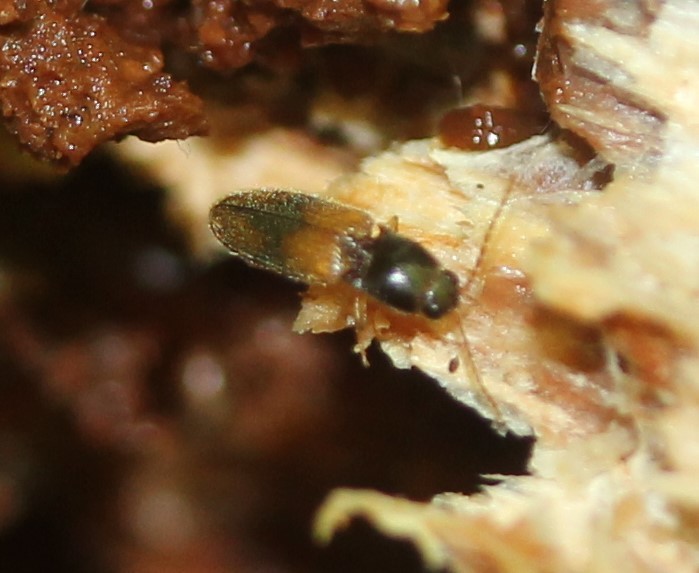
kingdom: Animalia
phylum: Arthropoda
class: Insecta
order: Coleoptera
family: Elateridae
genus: Horistonotus
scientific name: Horistonotus curiatus
